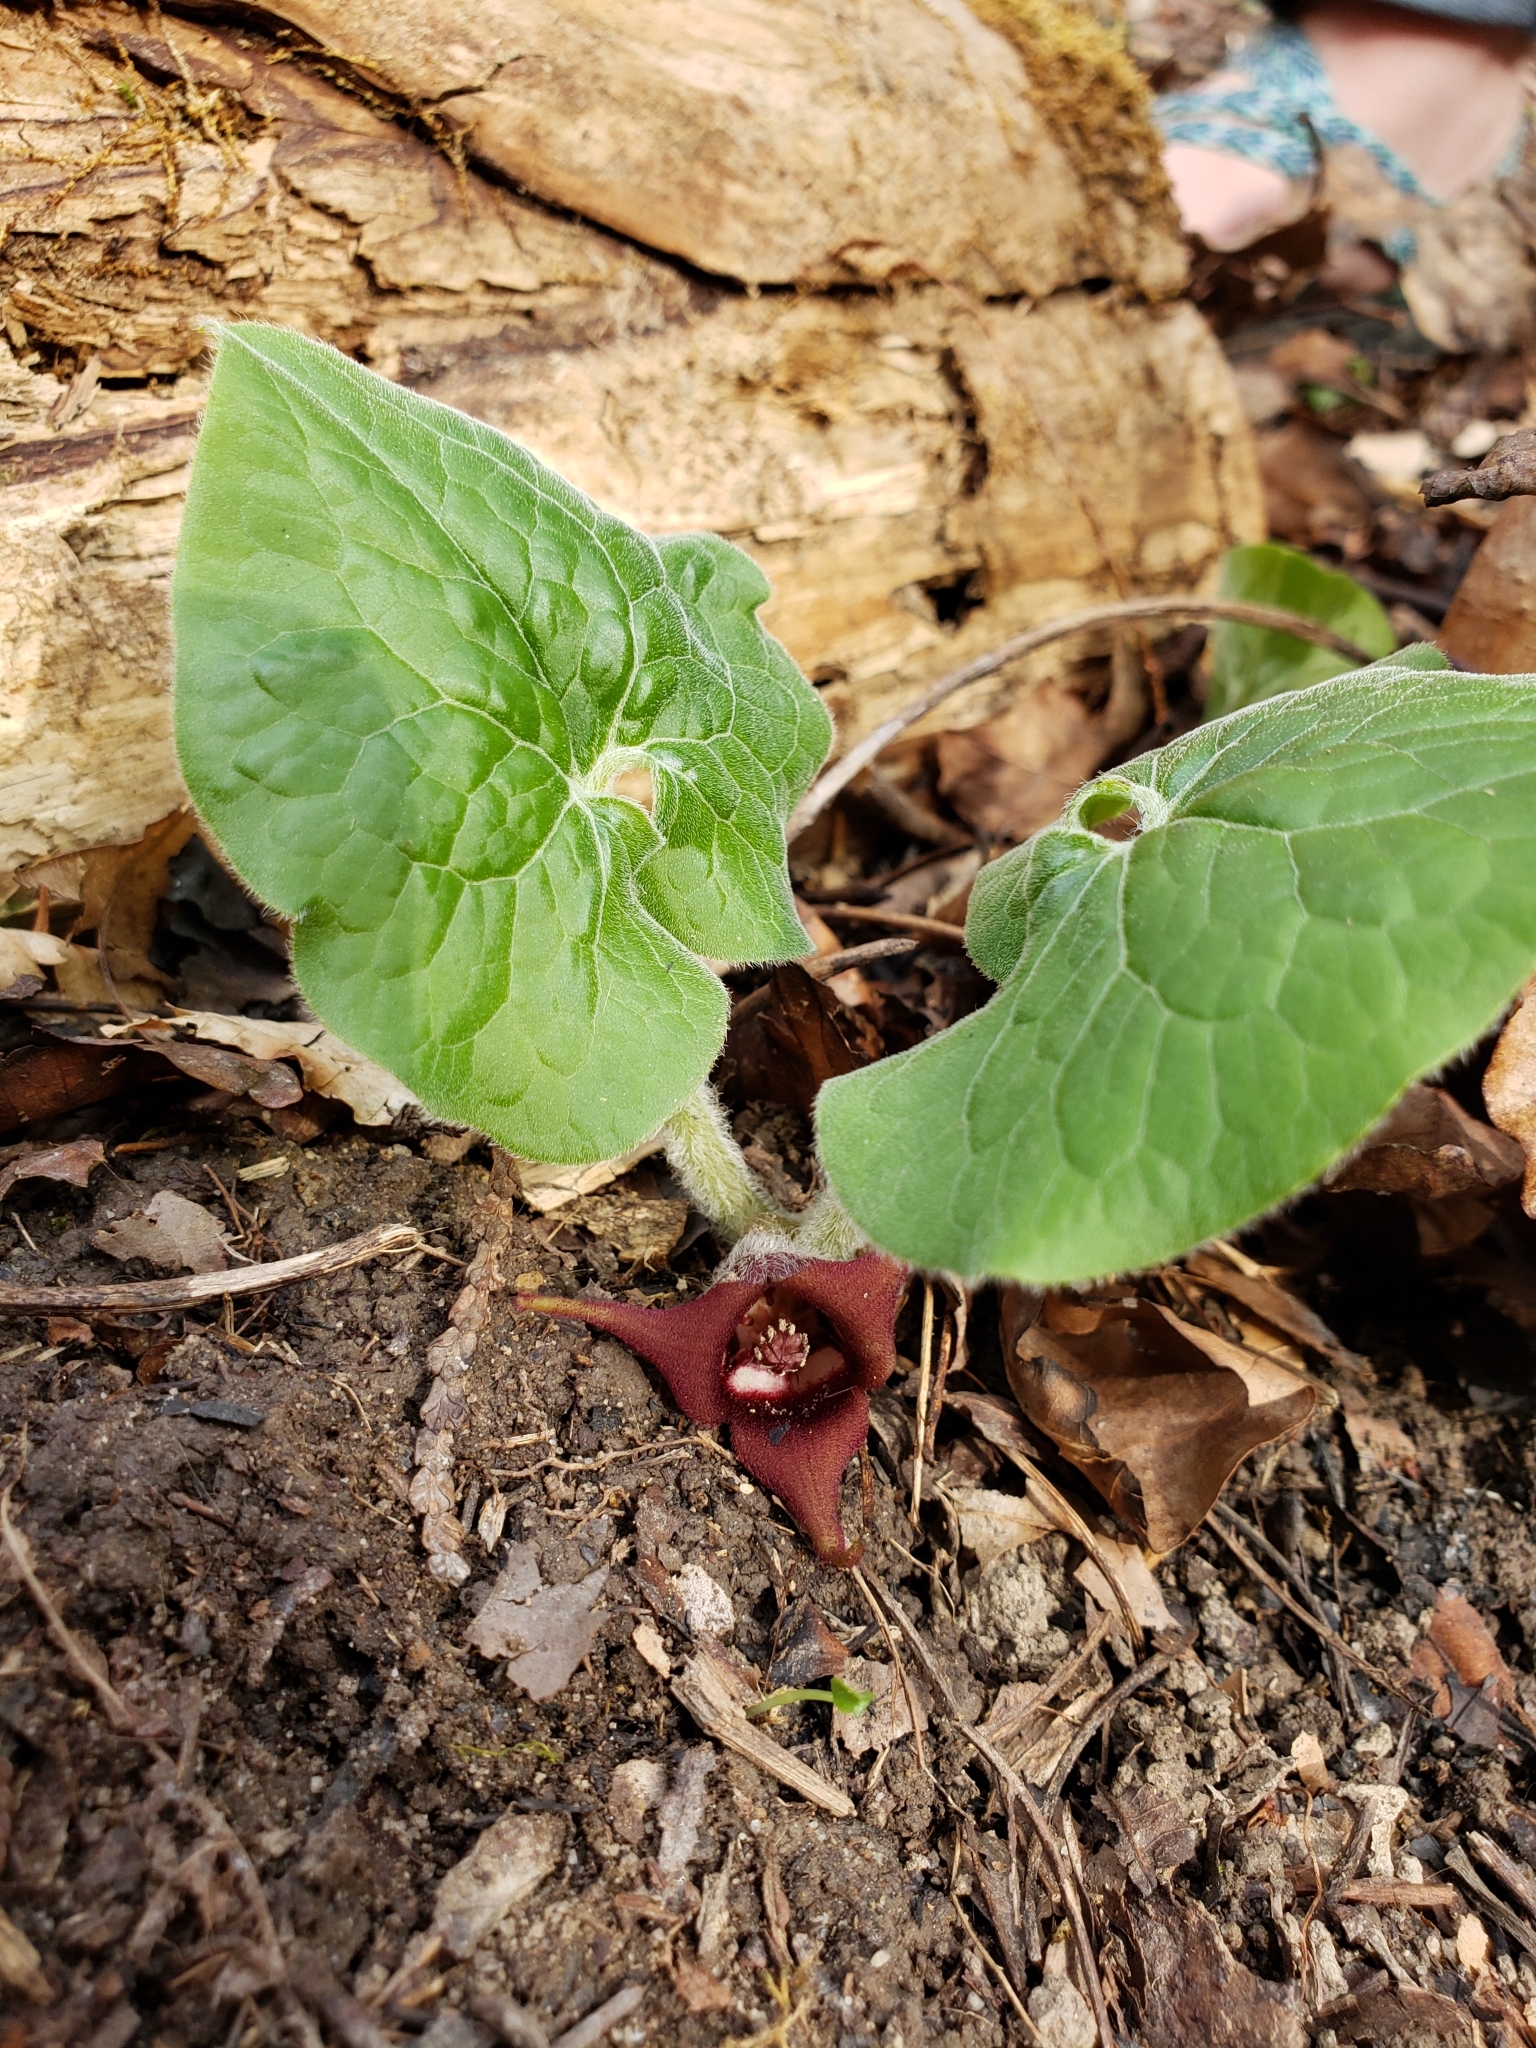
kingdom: Plantae
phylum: Tracheophyta
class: Magnoliopsida
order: Piperales
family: Aristolochiaceae
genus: Asarum
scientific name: Asarum canadense
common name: Wild ginger
